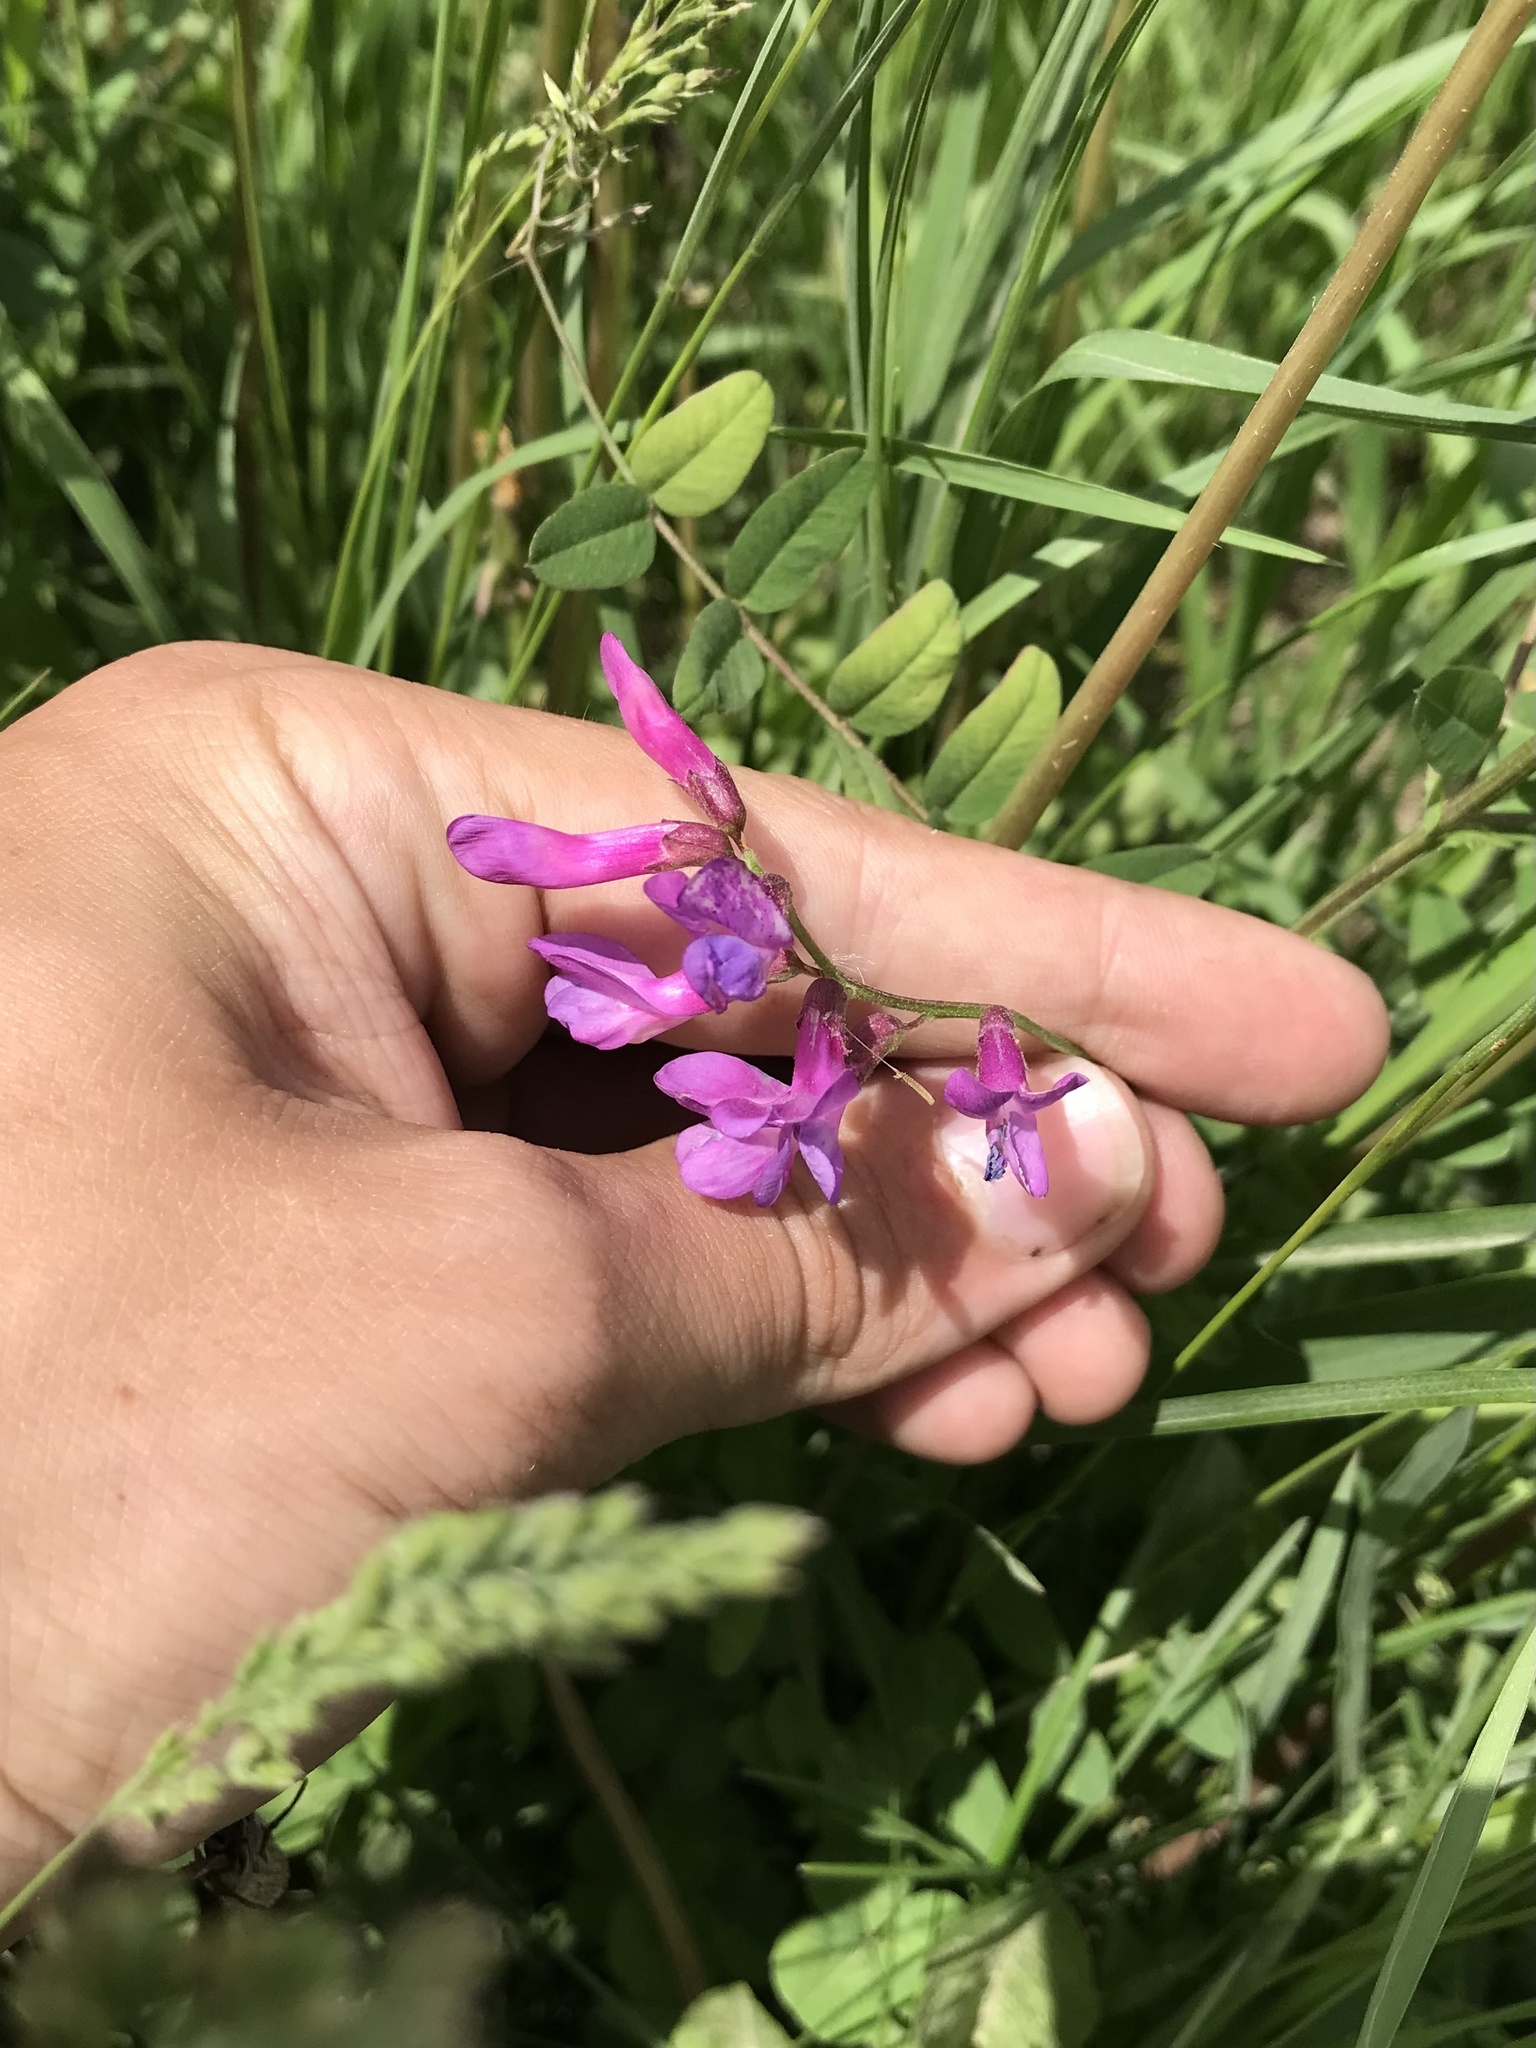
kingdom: Plantae
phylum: Tracheophyta
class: Magnoliopsida
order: Fabales
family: Fabaceae
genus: Vicia
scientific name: Vicia americana
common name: American vetch
